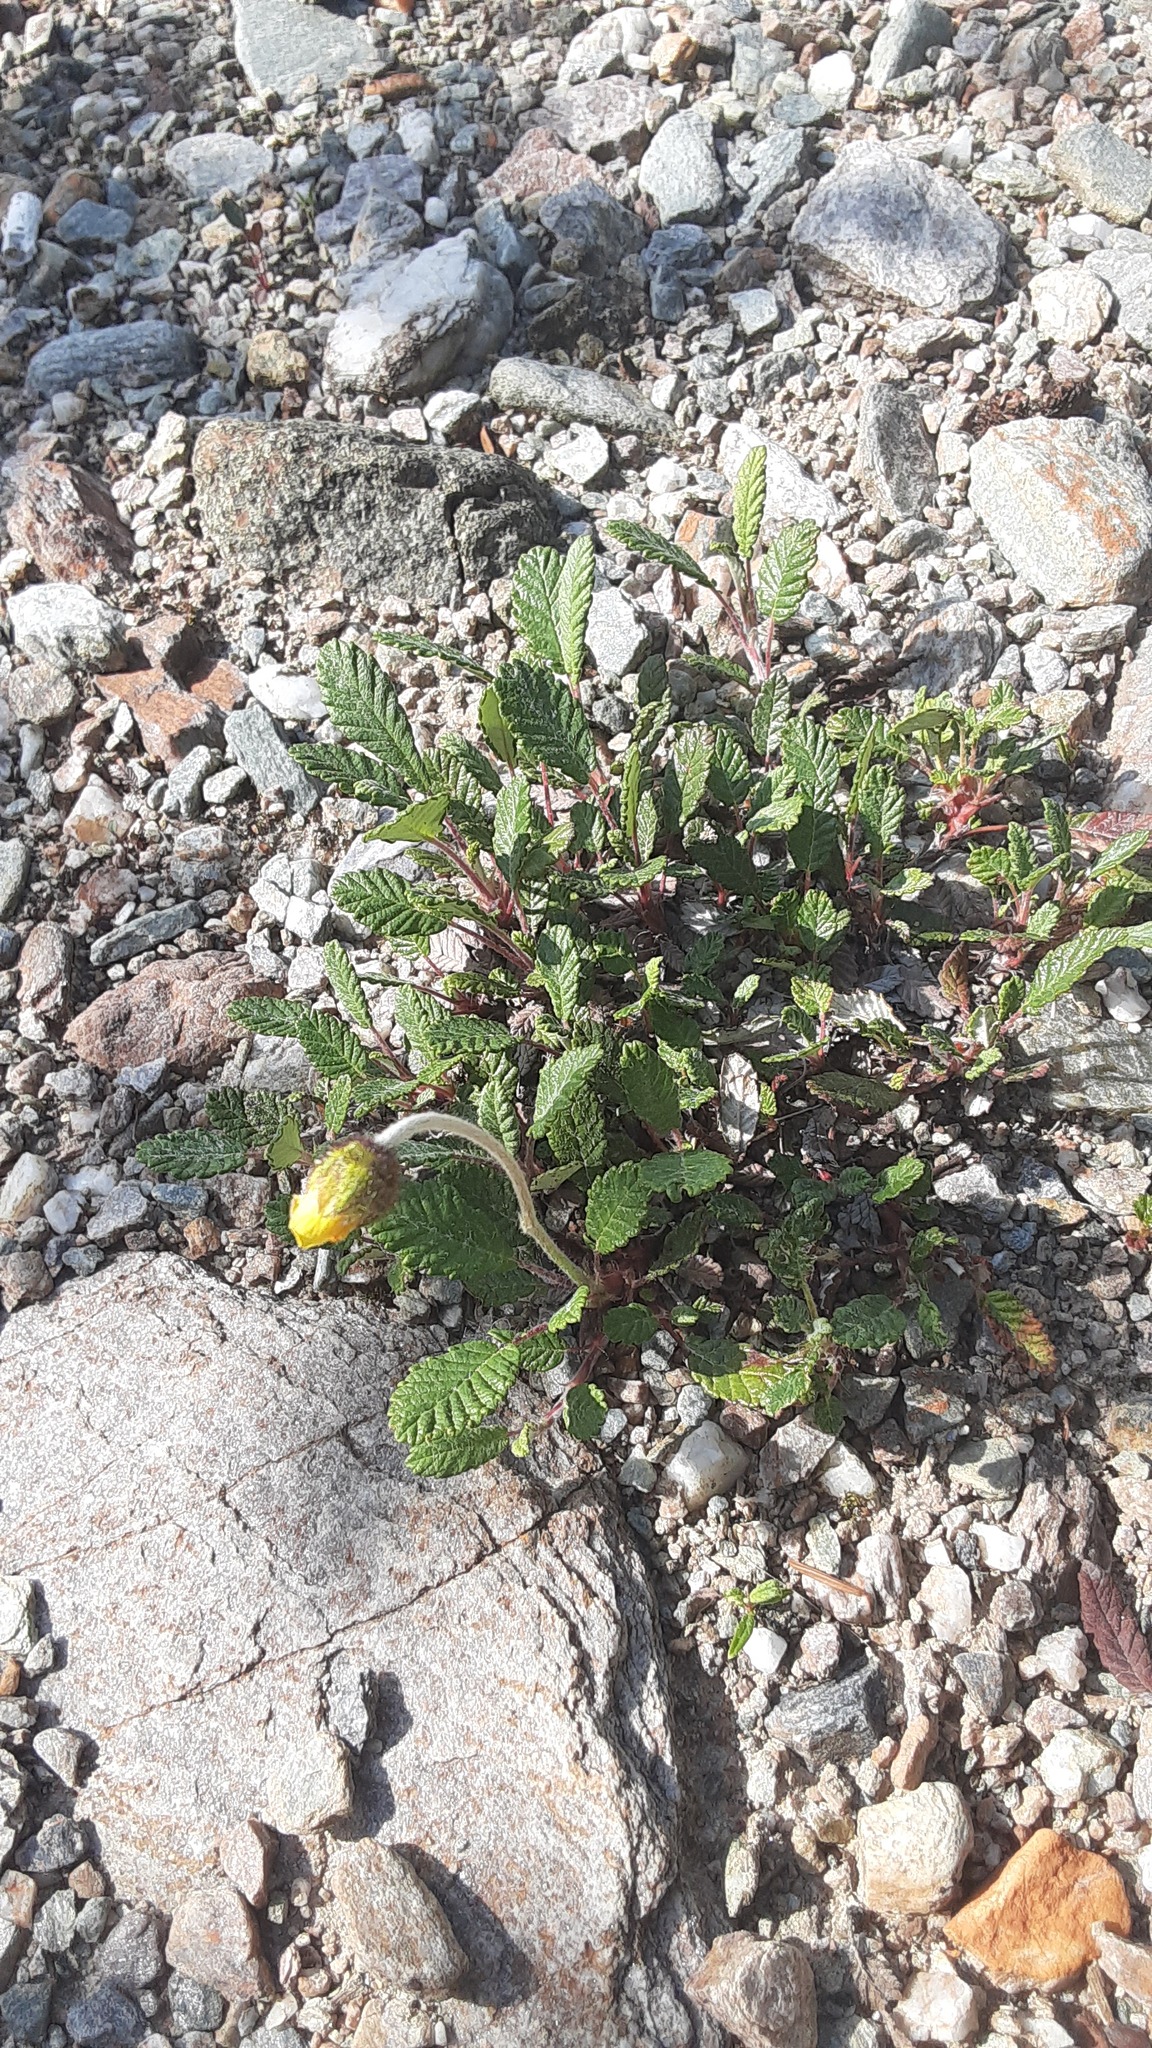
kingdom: Plantae
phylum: Tracheophyta
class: Magnoliopsida
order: Rosales
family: Rosaceae
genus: Dryas
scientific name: Dryas drummondii
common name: Drummond's dryad
